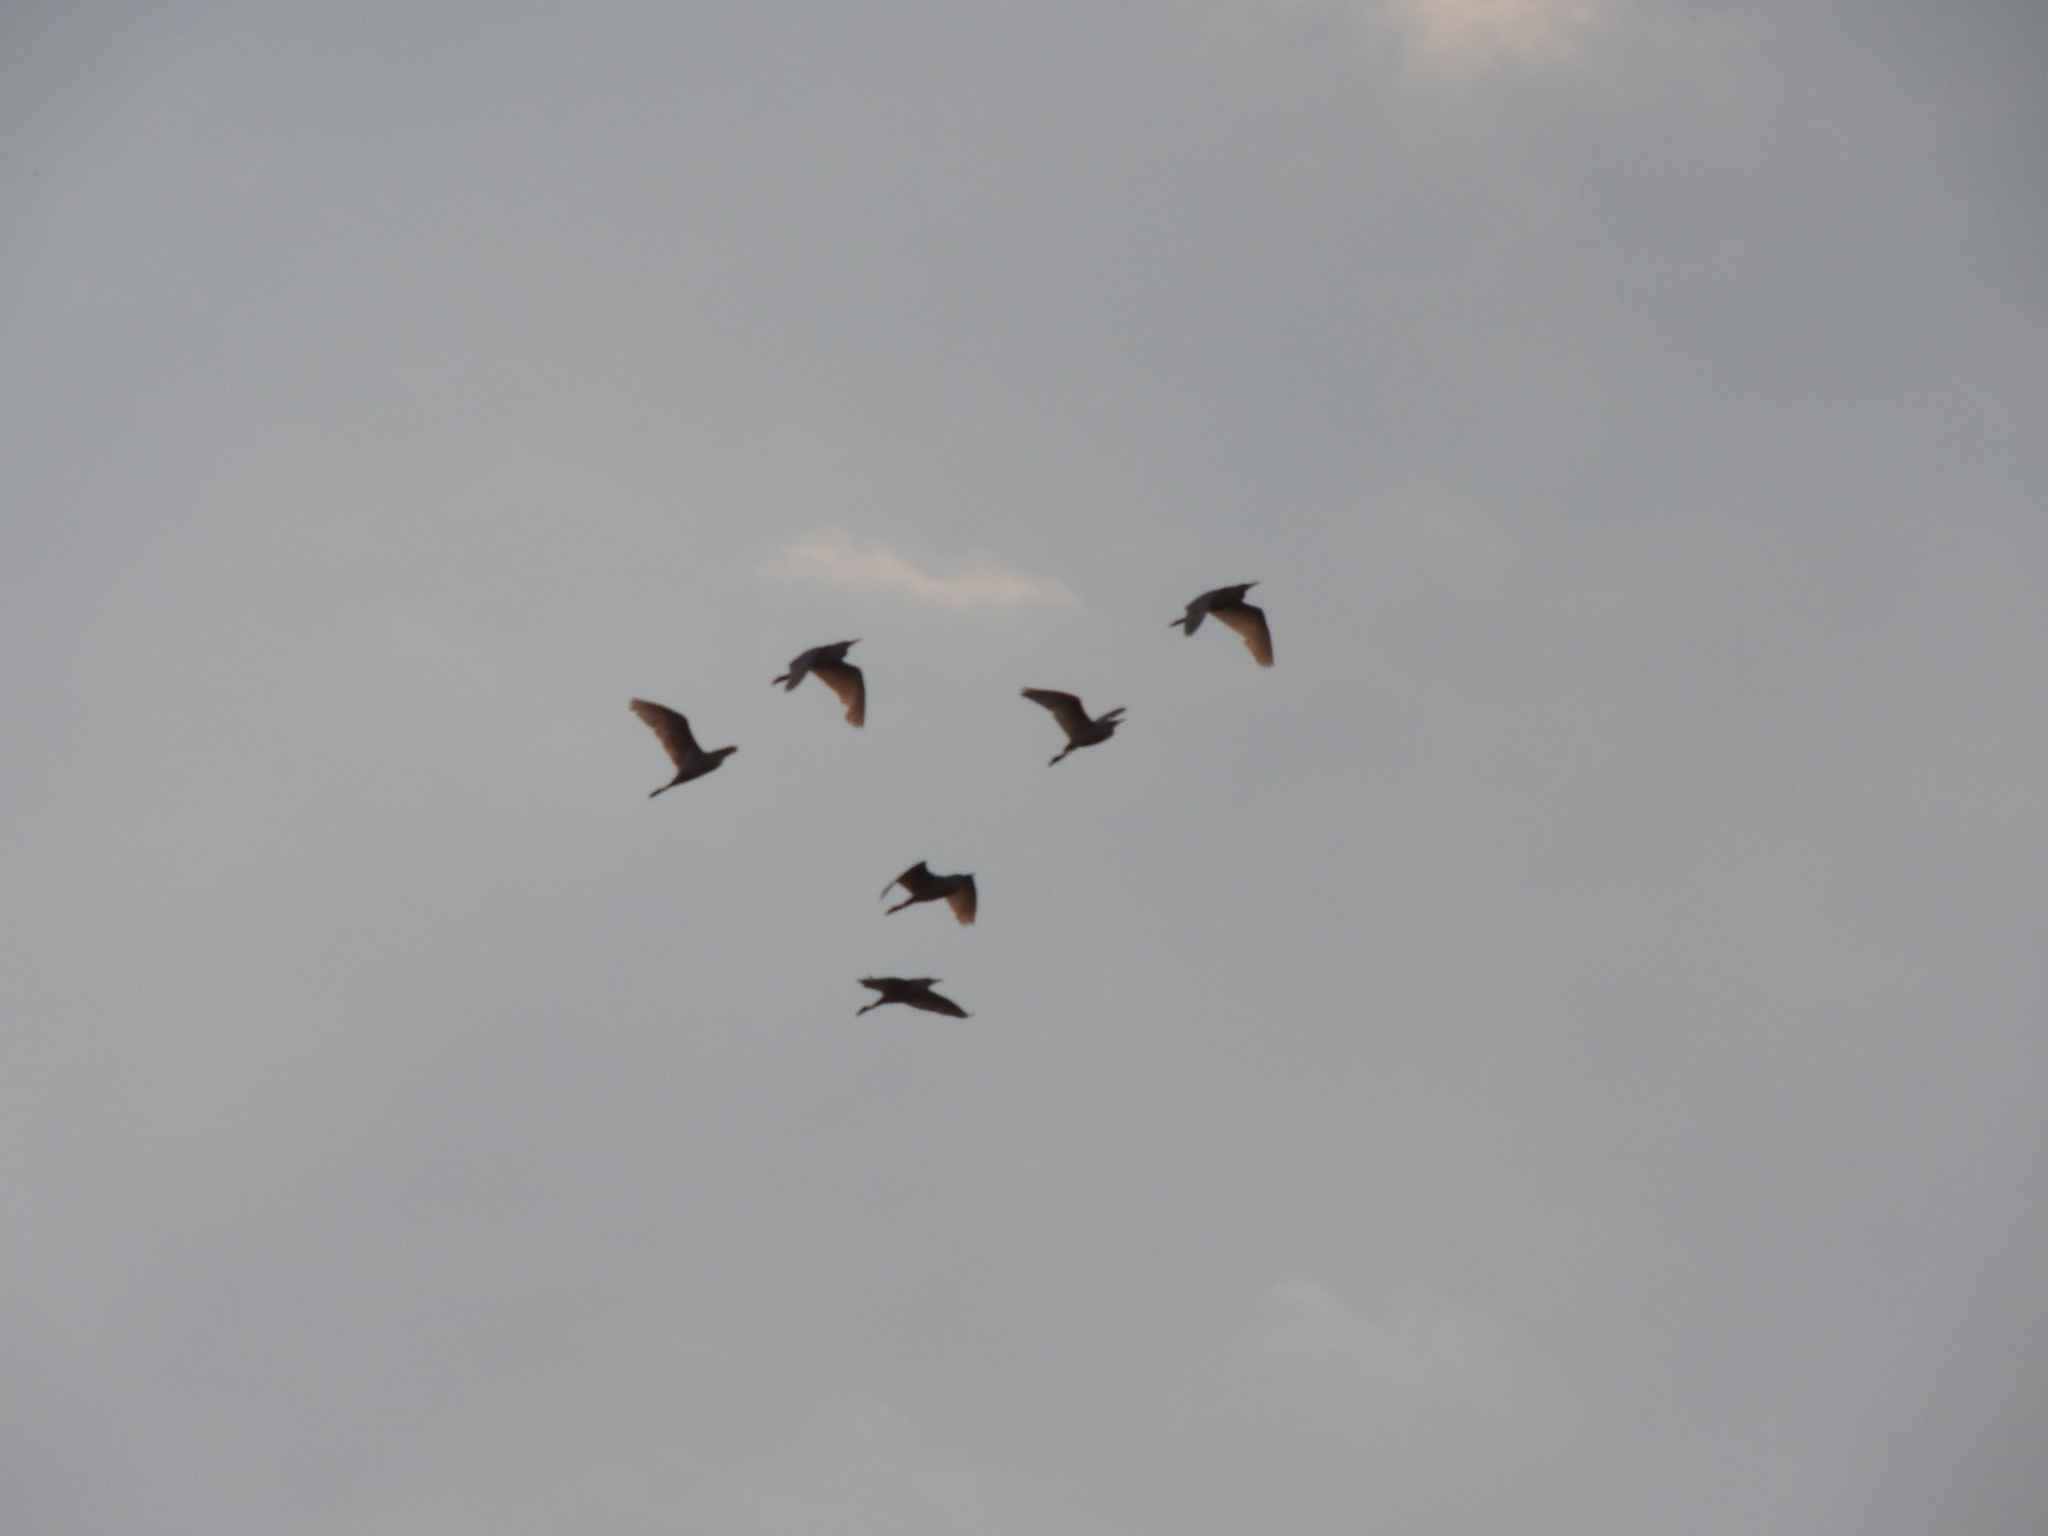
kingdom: Animalia
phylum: Chordata
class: Aves
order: Pelecaniformes
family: Ardeidae
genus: Bubulcus
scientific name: Bubulcus ibis
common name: Cattle egret
